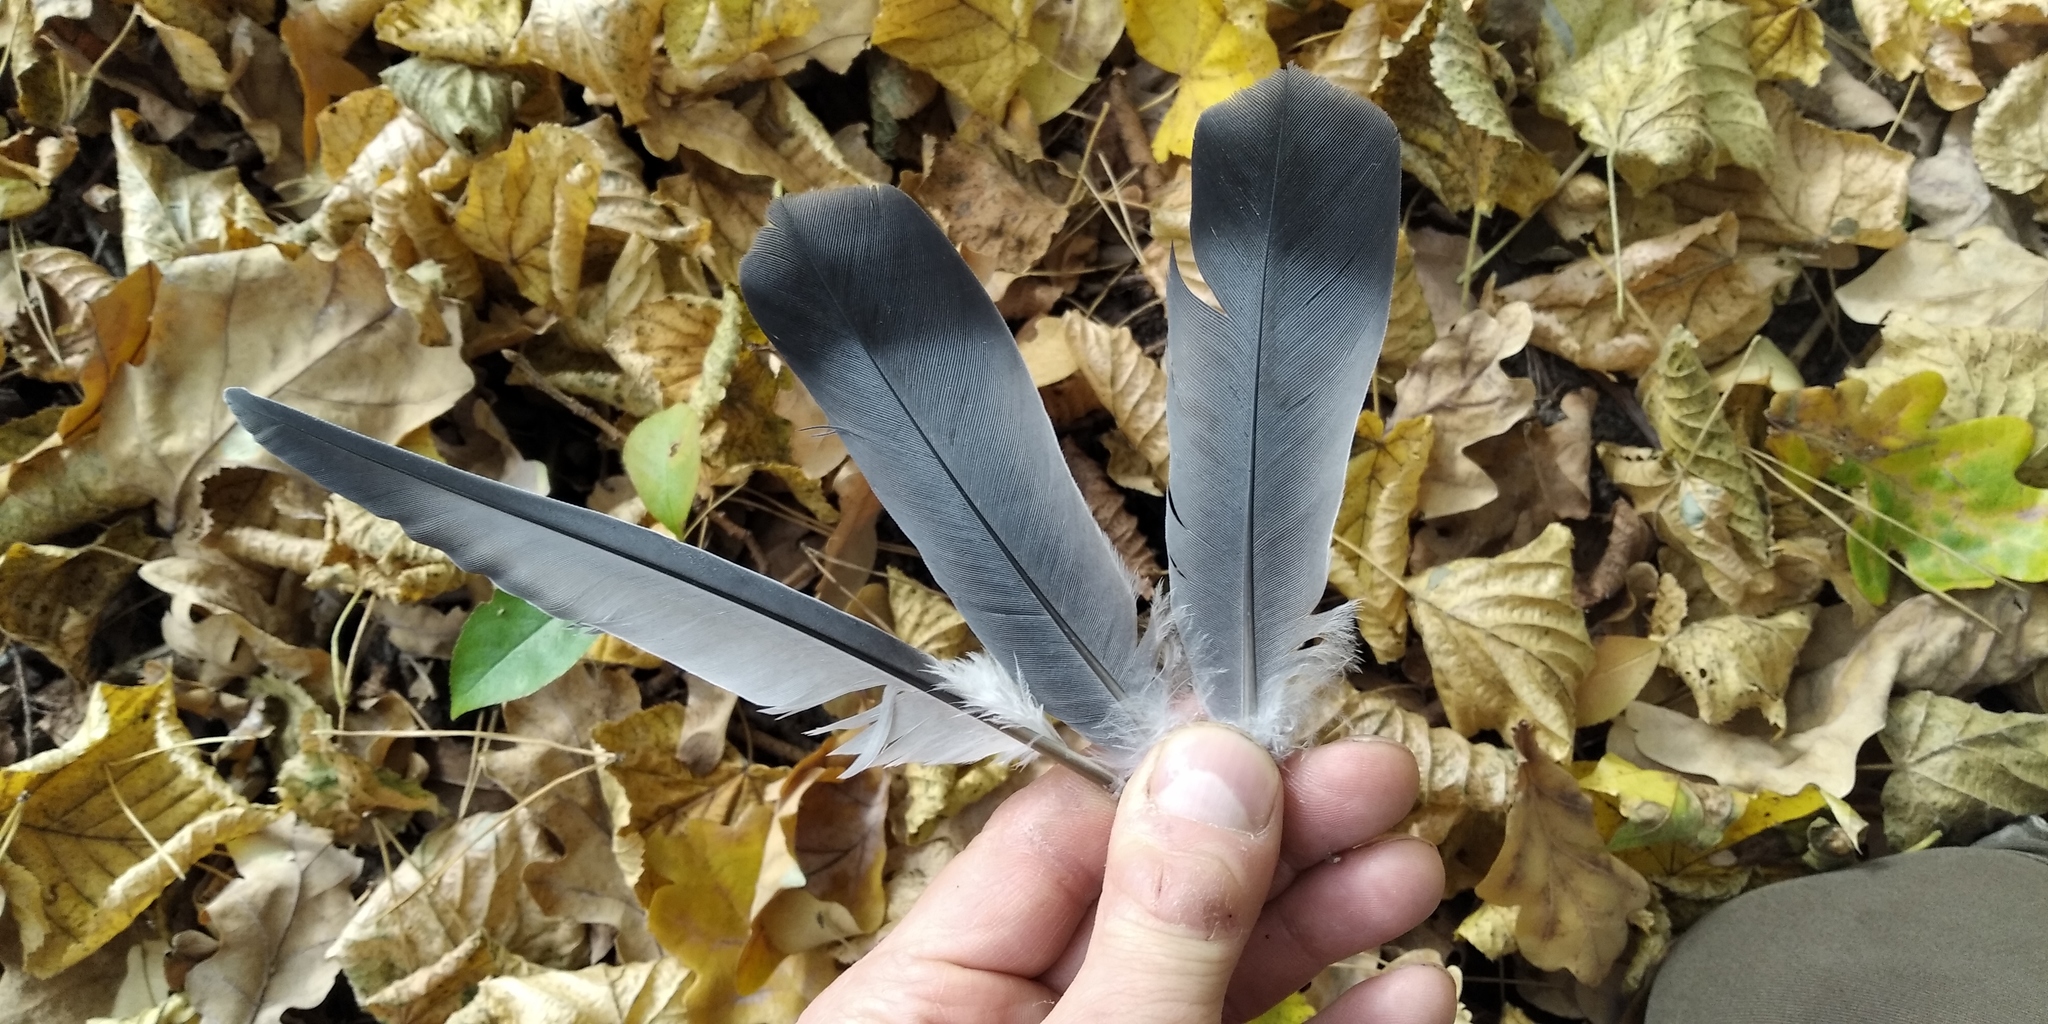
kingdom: Animalia
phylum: Chordata
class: Aves
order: Columbiformes
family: Columbidae
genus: Columba
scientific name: Columba livia
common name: Rock pigeon
